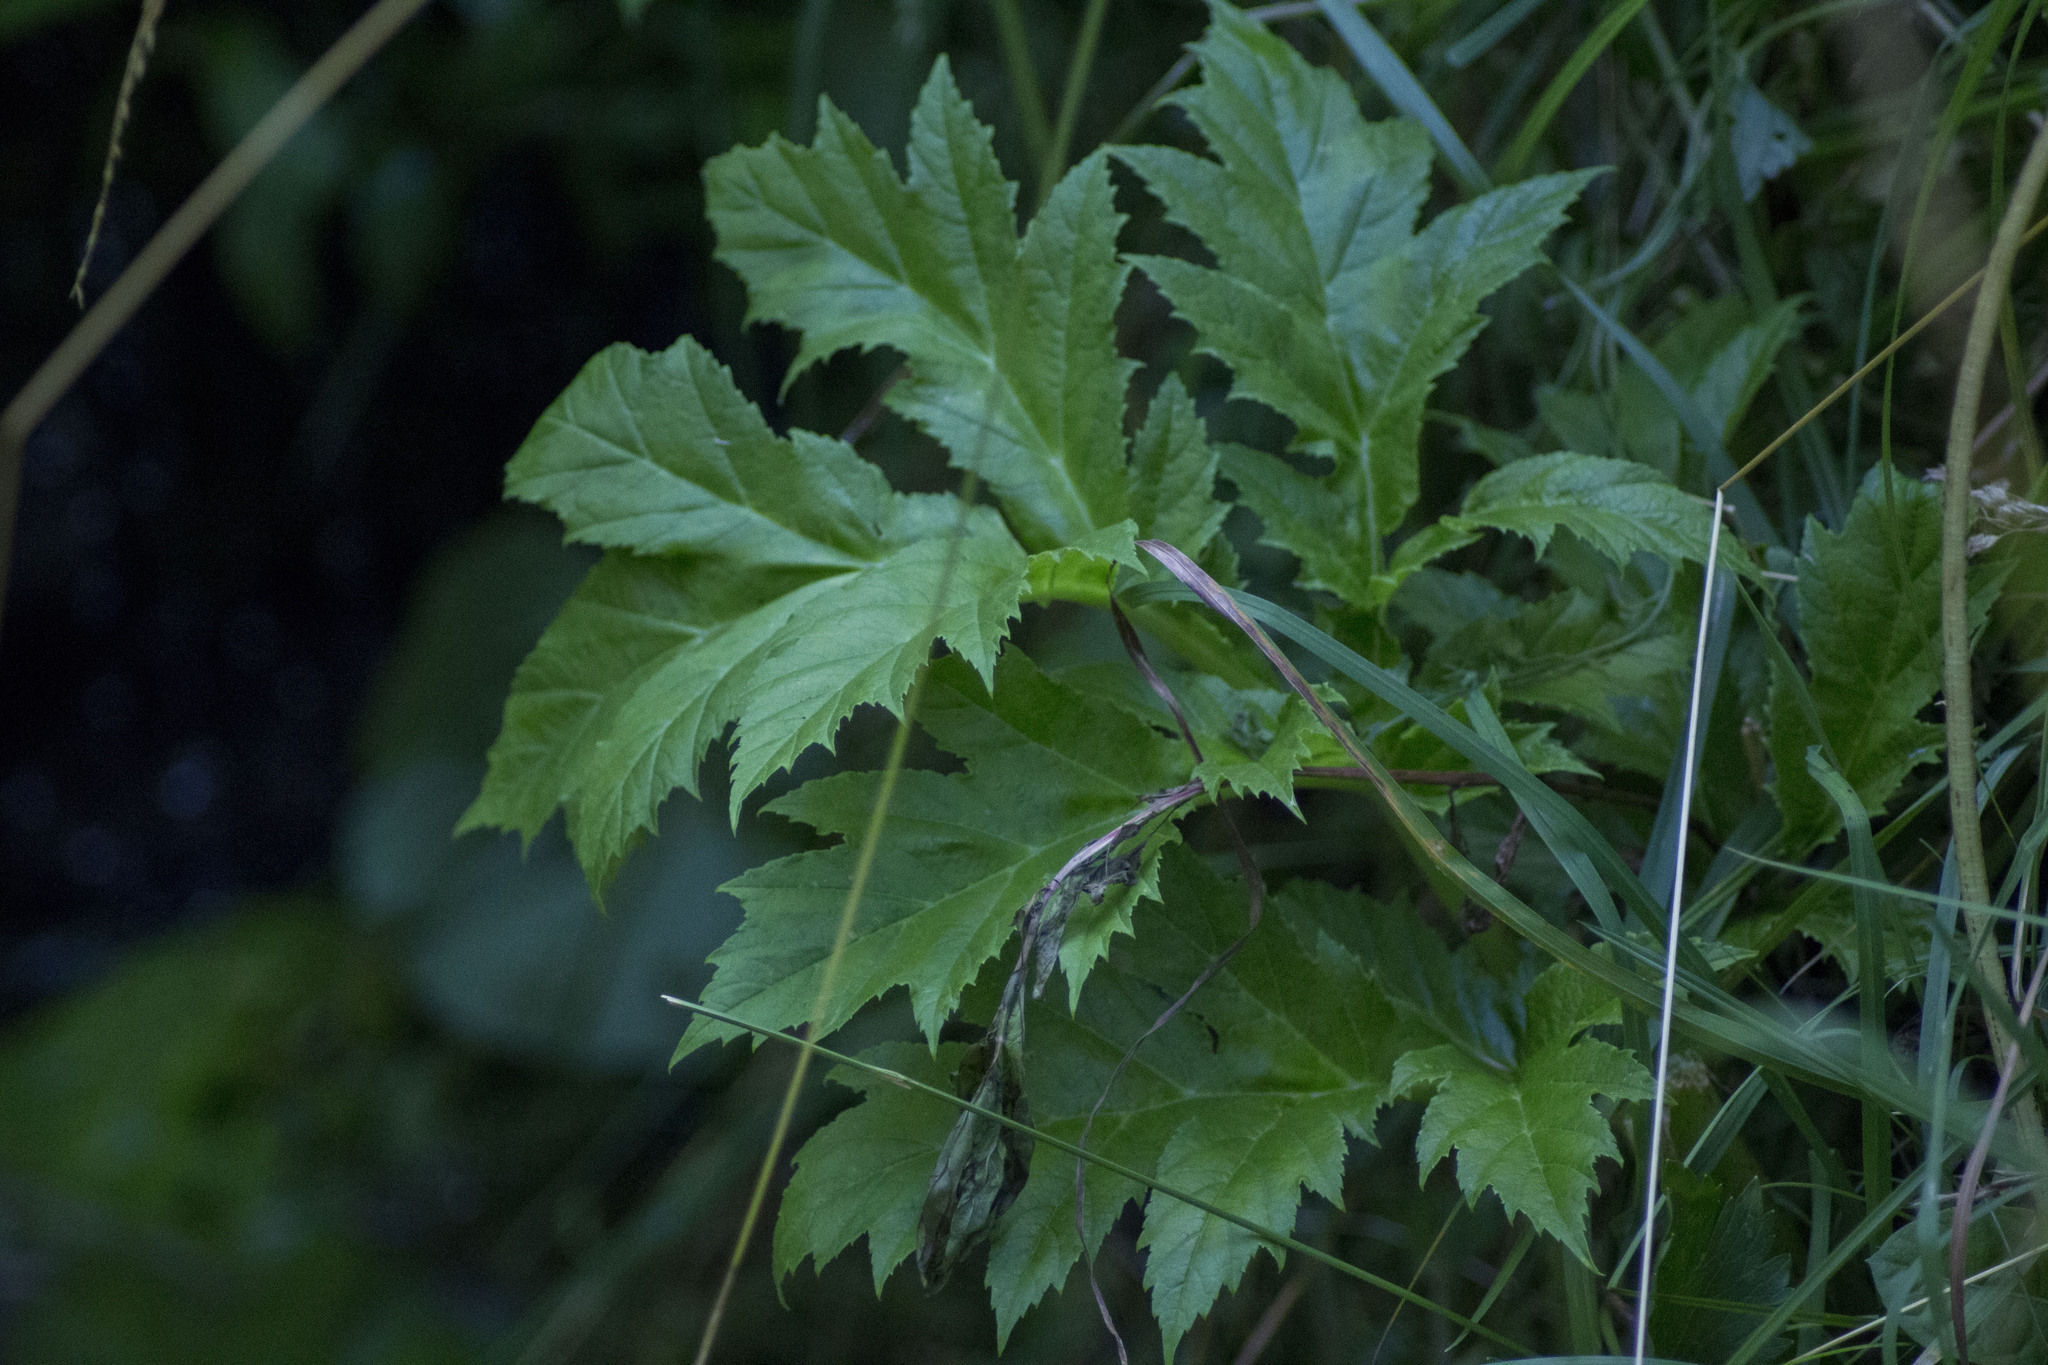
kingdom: Plantae
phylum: Tracheophyta
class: Magnoliopsida
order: Apiales
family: Apiaceae
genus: Heracleum
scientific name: Heracleum sosnowskyi
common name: Sosnowsky's hogweed
